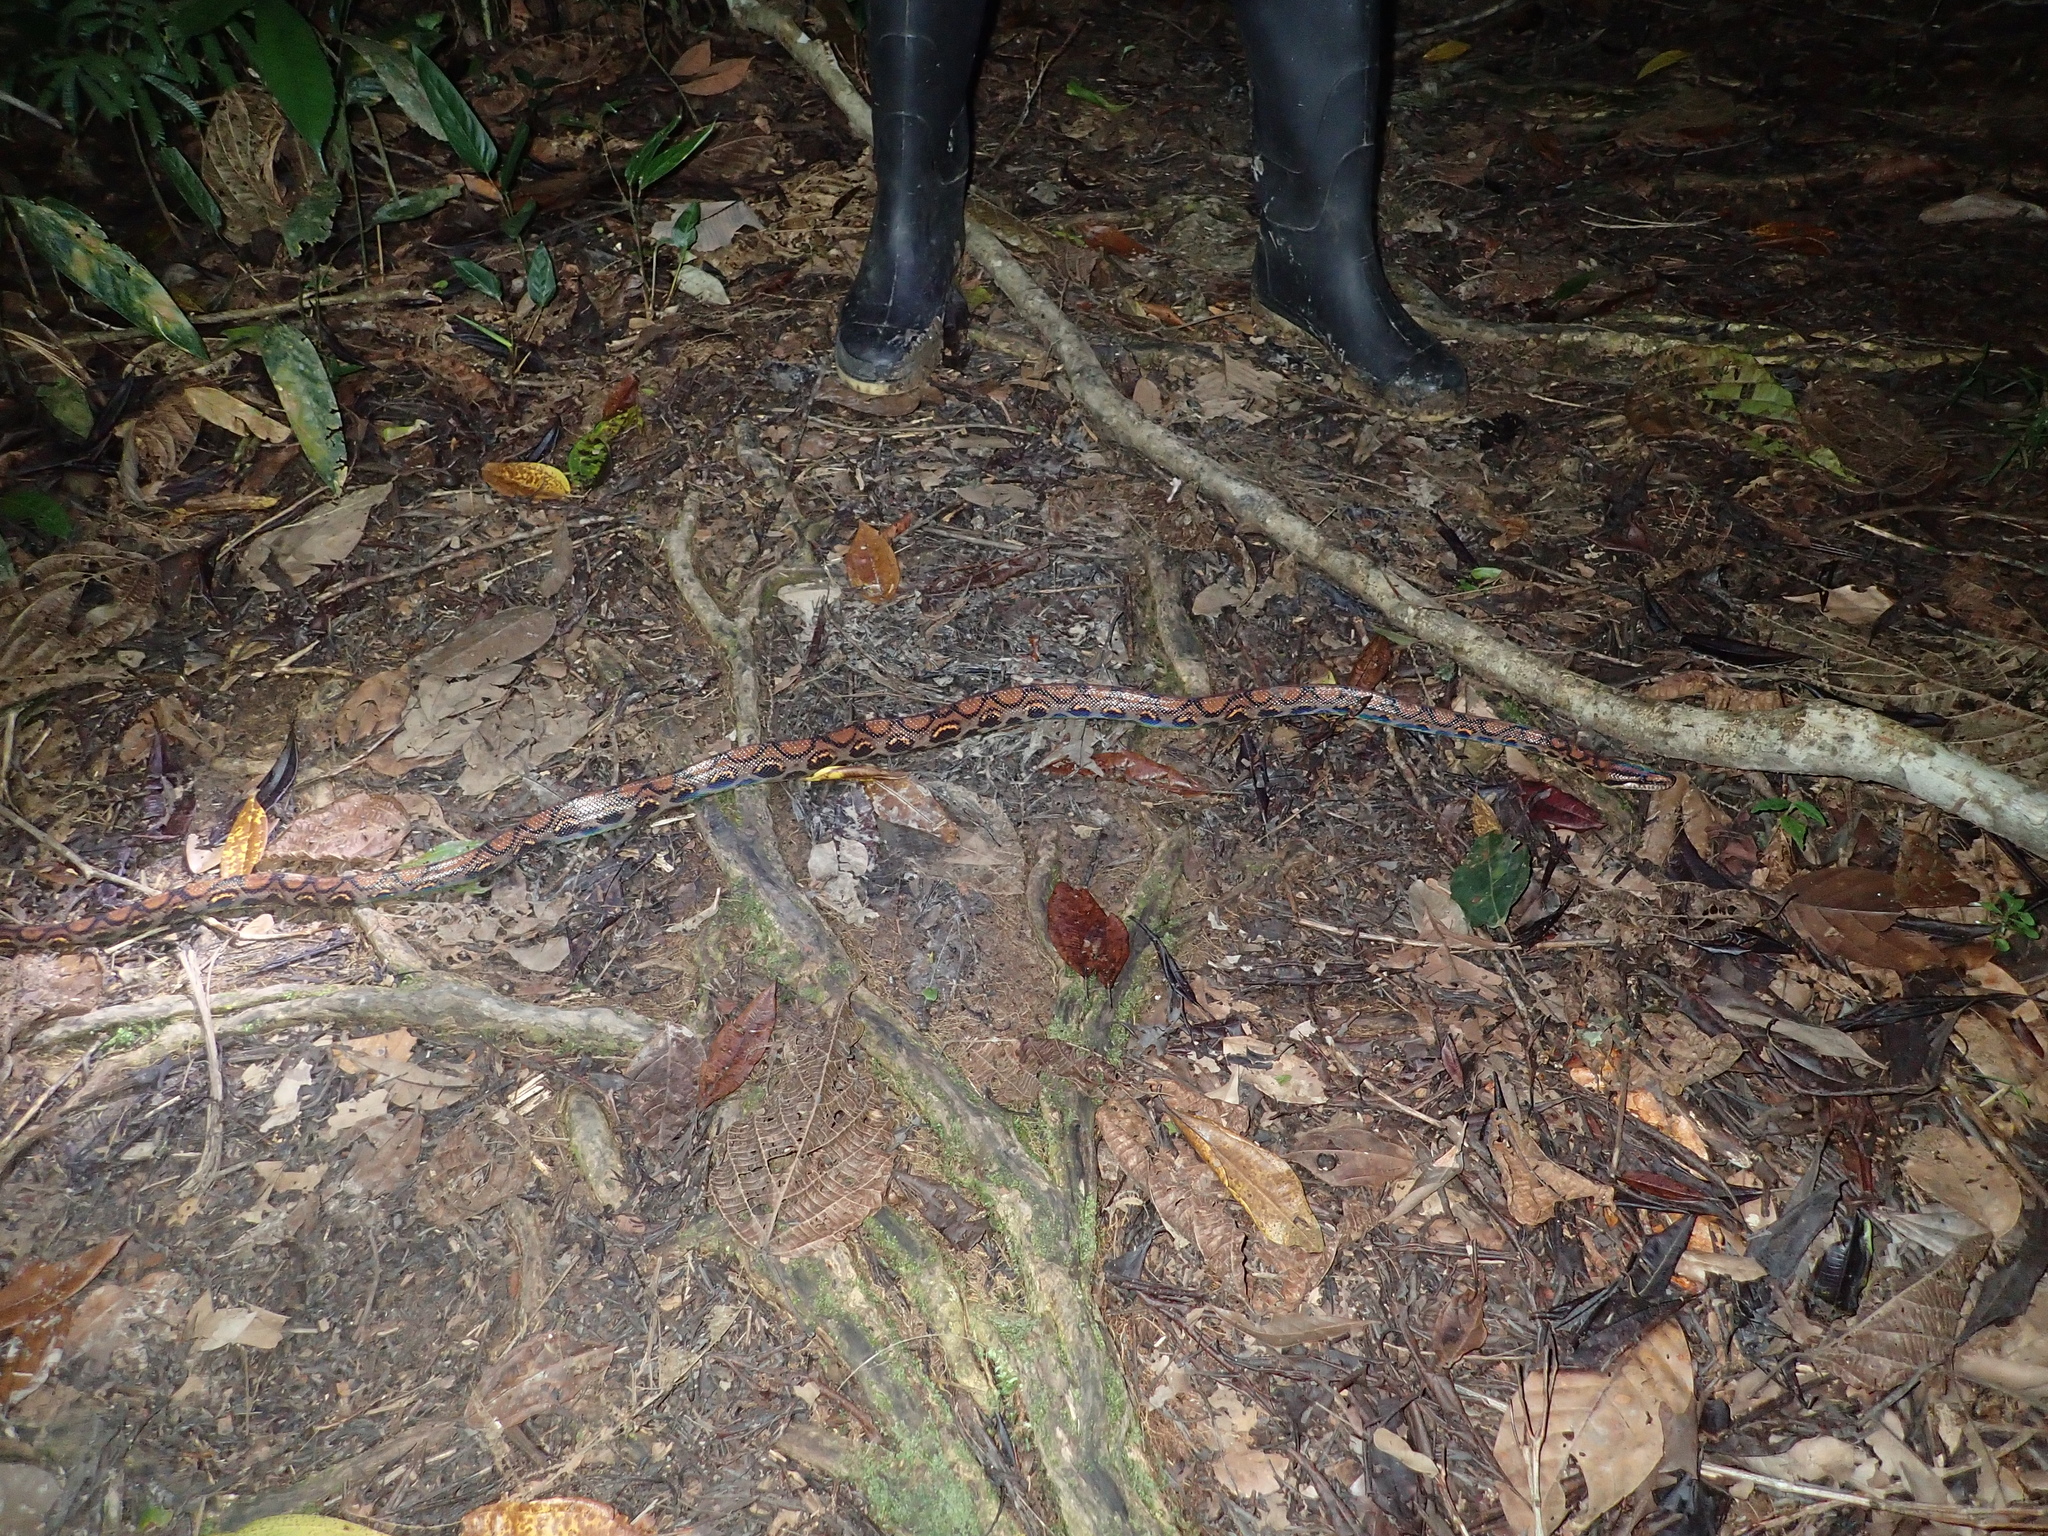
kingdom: Animalia
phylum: Chordata
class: Squamata
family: Boidae
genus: Epicrates
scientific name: Epicrates cenchria
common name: Rainbow boa
